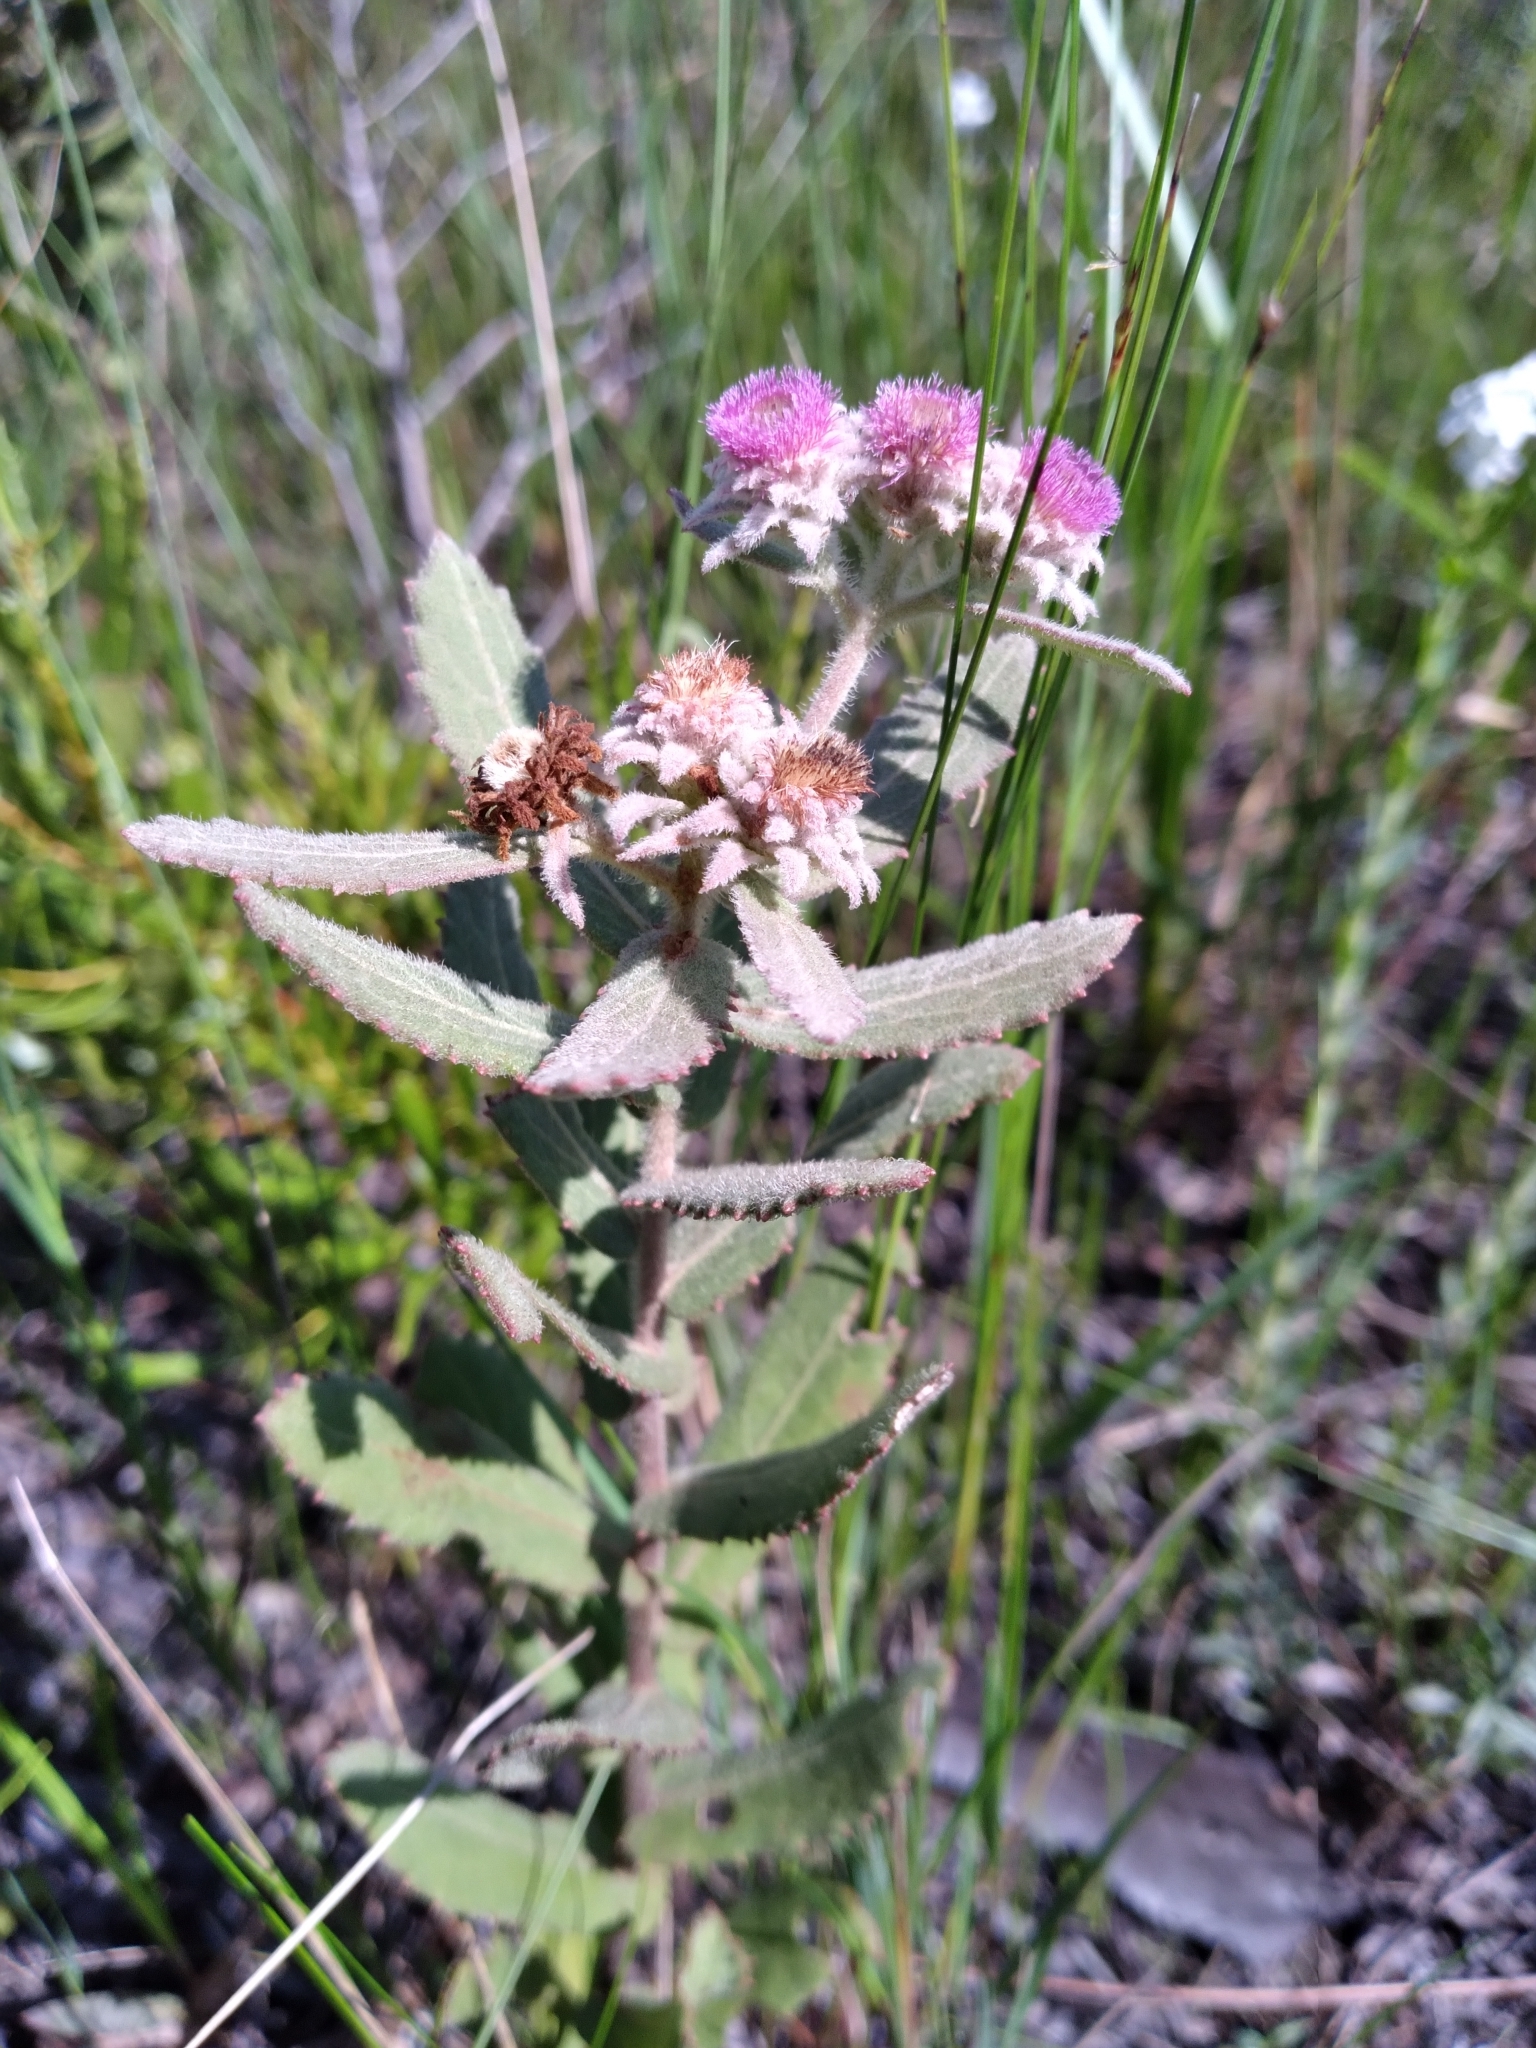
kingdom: Plantae
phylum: Tracheophyta
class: Magnoliopsida
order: Asterales
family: Asteraceae
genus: Pluchea
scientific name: Pluchea baccharis
